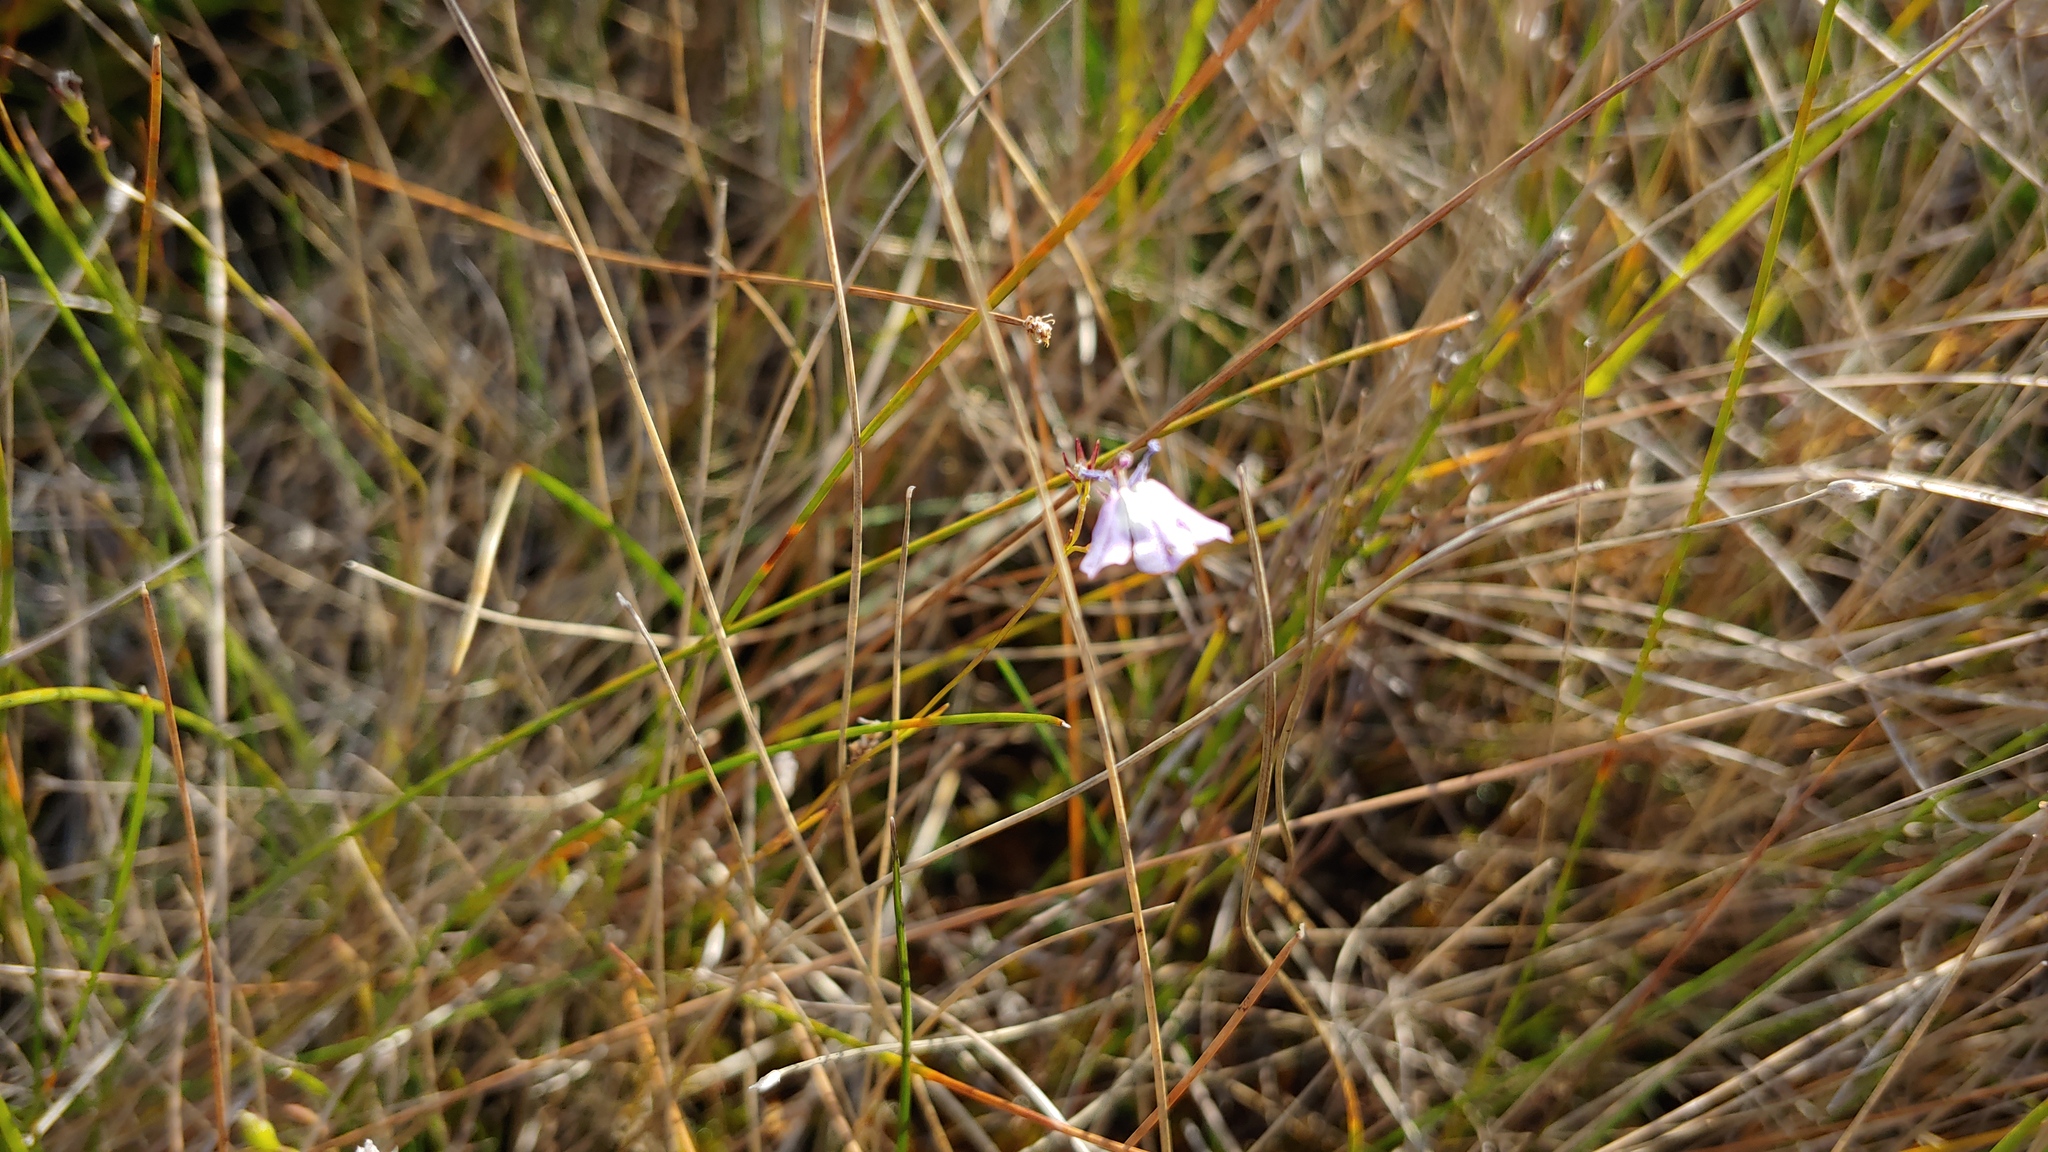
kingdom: Plantae
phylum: Tracheophyta
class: Magnoliopsida
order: Asterales
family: Campanulaceae
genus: Lobelia
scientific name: Lobelia kalmii
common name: Kalm's lobelia
